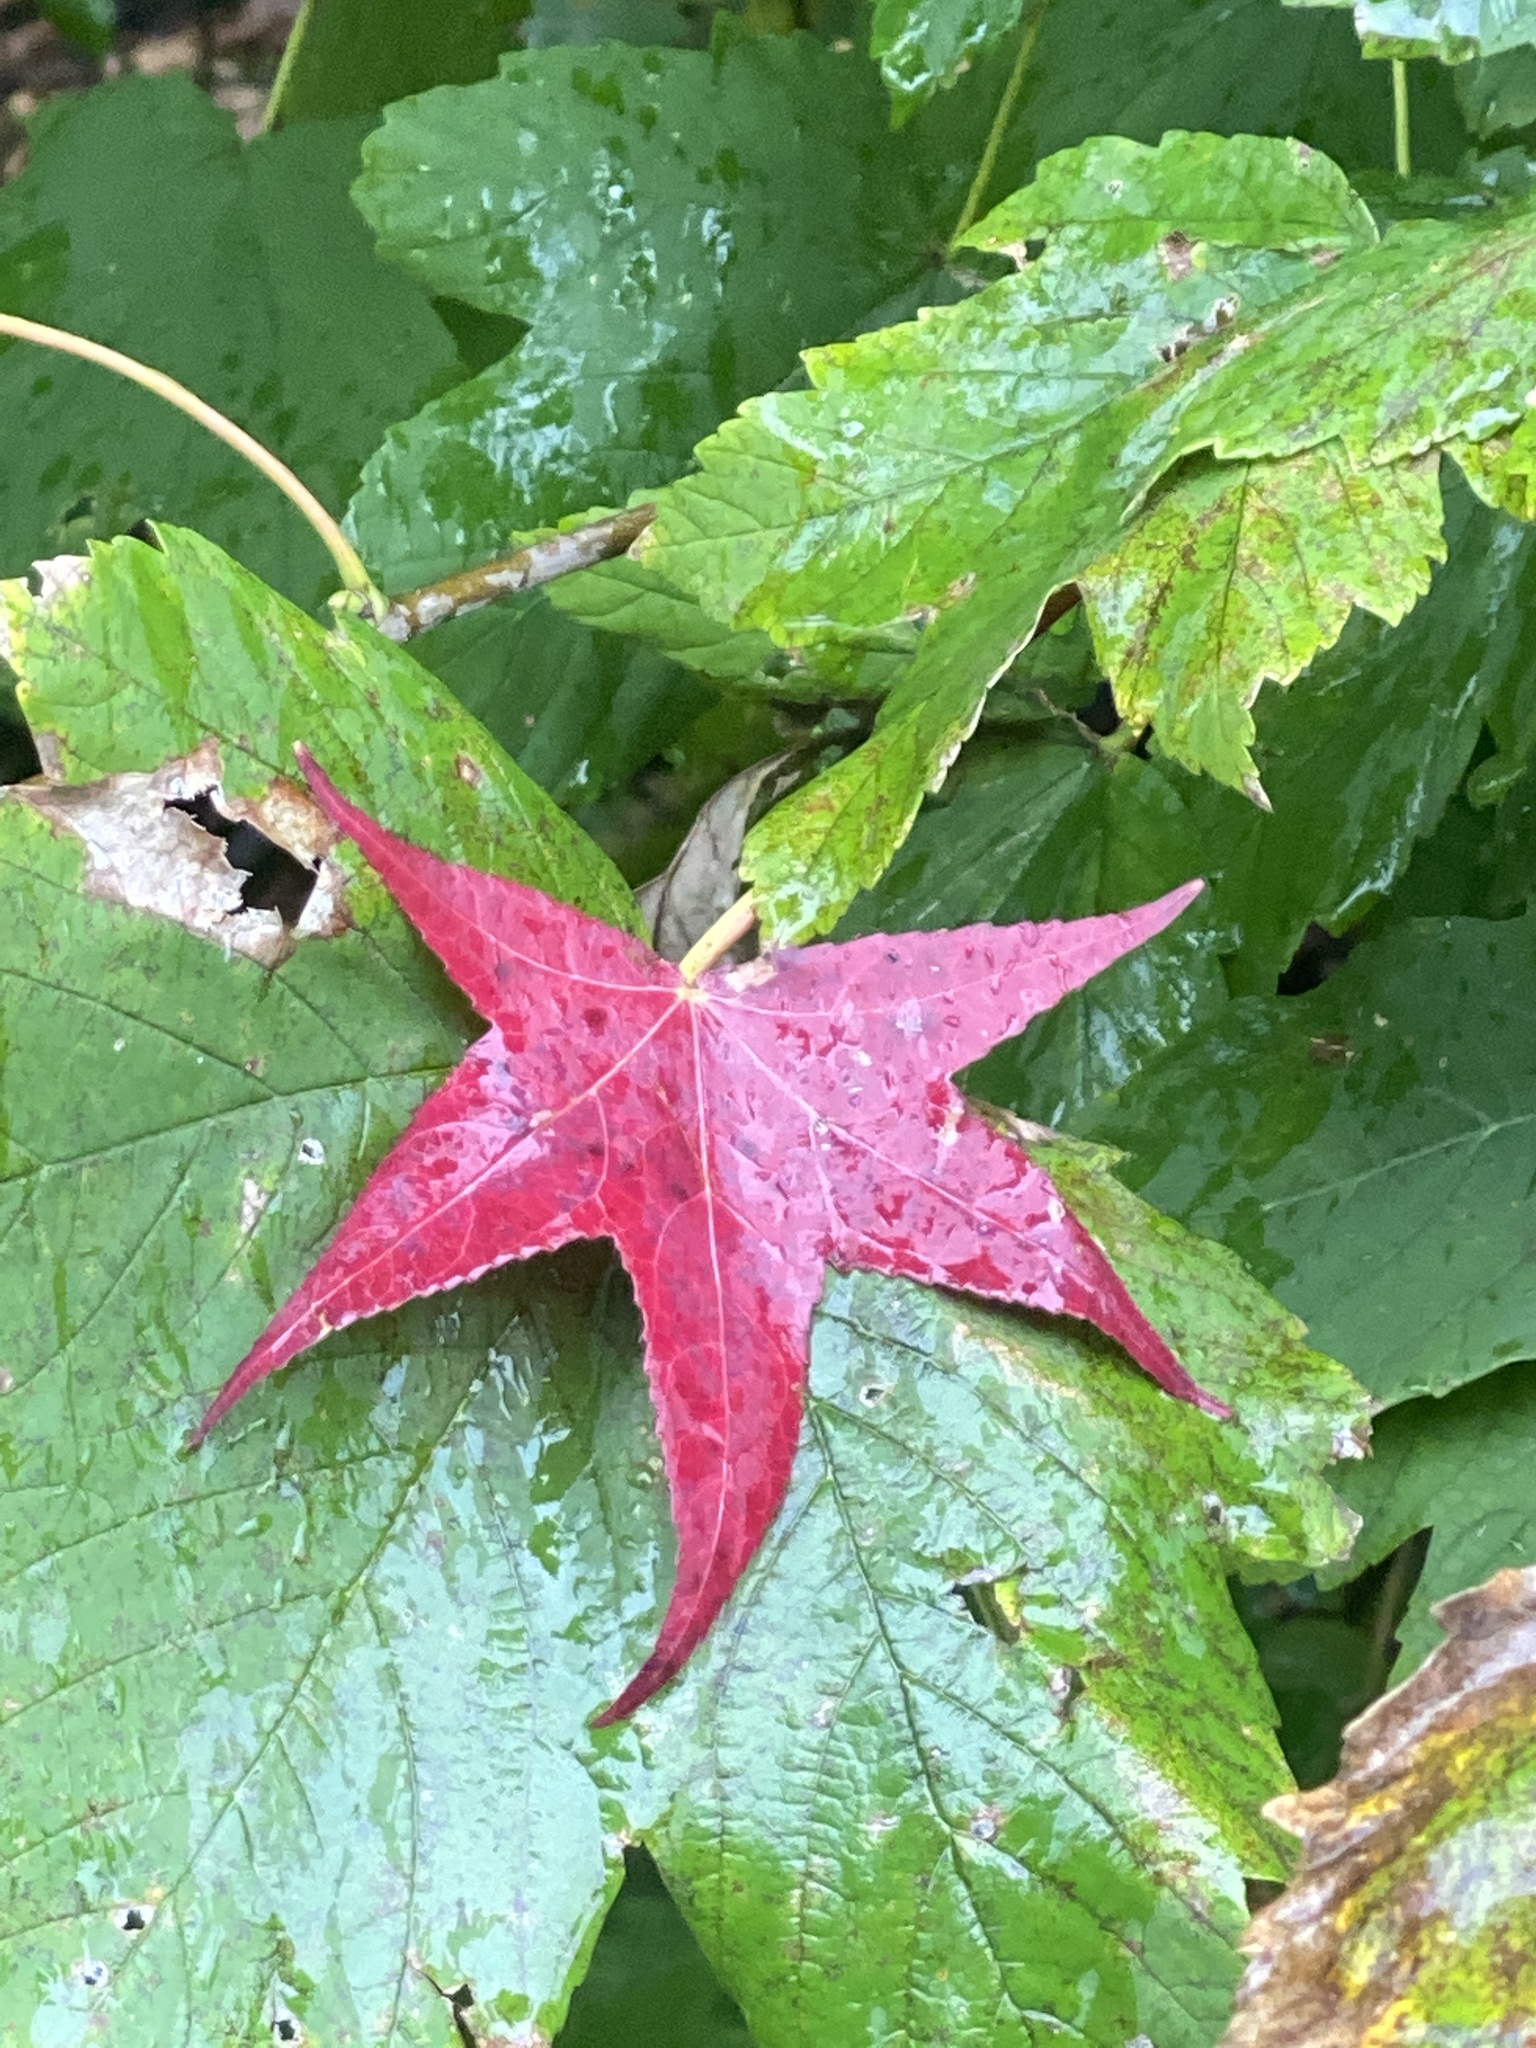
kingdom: Plantae
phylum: Tracheophyta
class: Magnoliopsida
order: Saxifragales
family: Altingiaceae
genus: Liquidambar
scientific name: Liquidambar styraciflua
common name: Sweet gum
